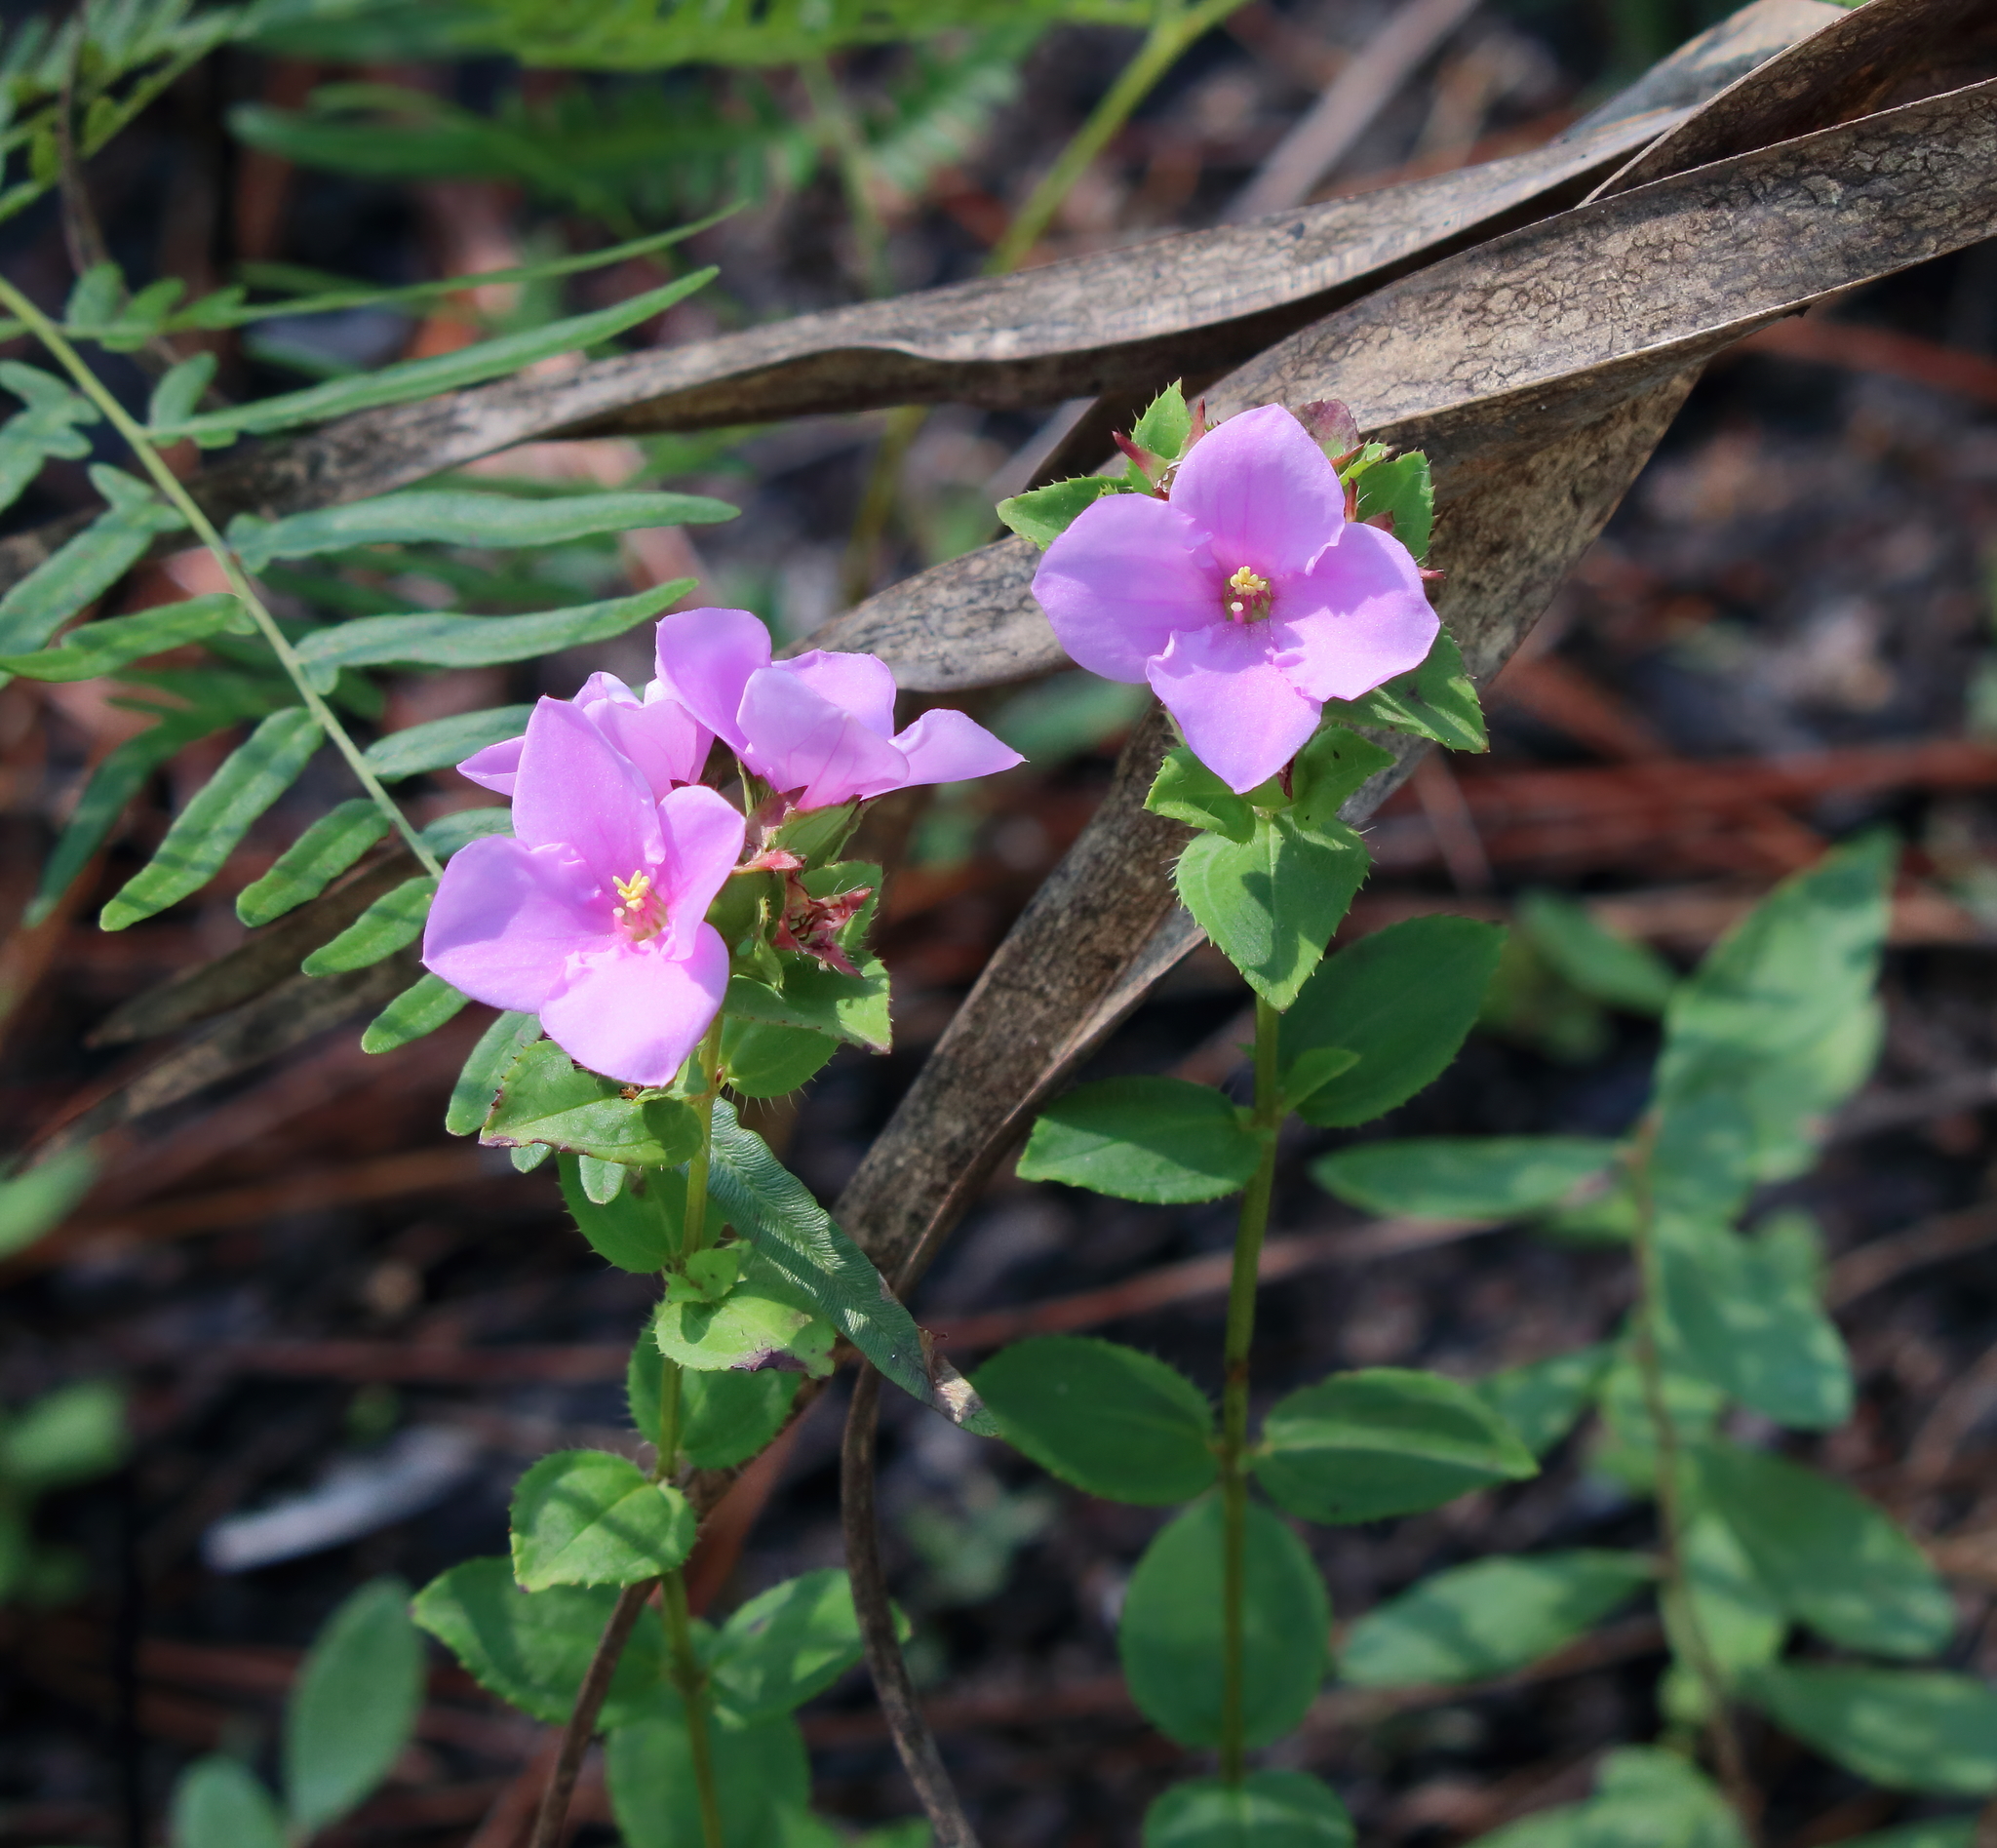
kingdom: Plantae
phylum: Tracheophyta
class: Magnoliopsida
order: Myrtales
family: Melastomataceae
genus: Rhexia
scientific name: Rhexia petiolata
